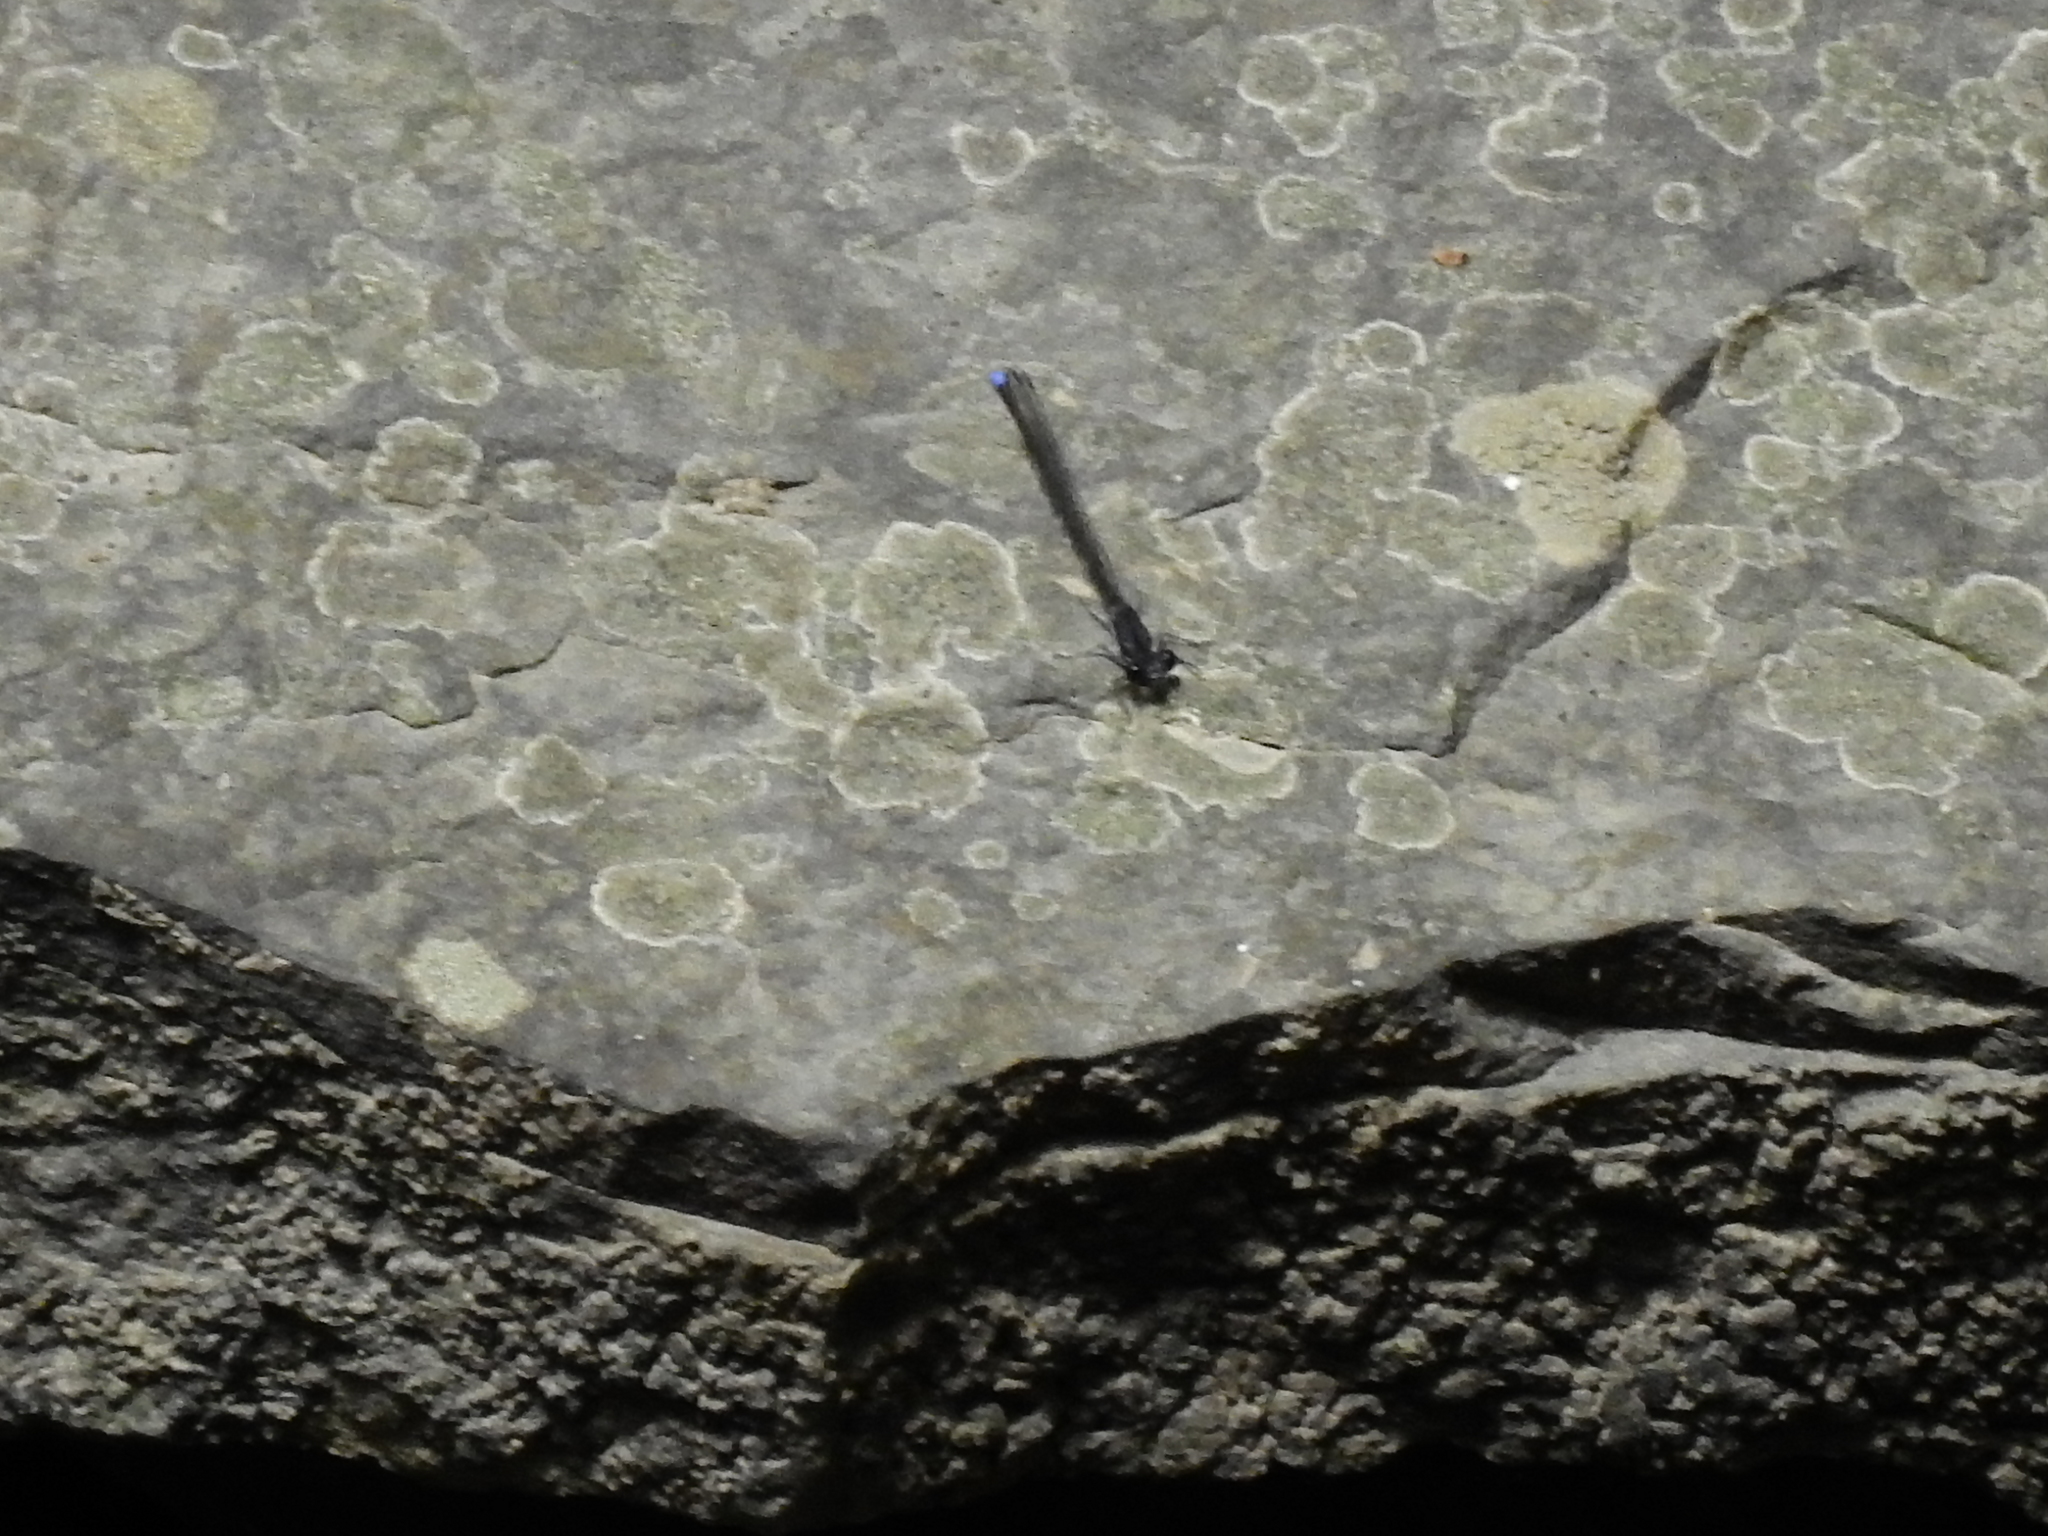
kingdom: Animalia
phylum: Arthropoda
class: Insecta
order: Odonata
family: Coenagrionidae
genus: Argia
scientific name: Argia tibialis
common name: Blue-tipped dancer
